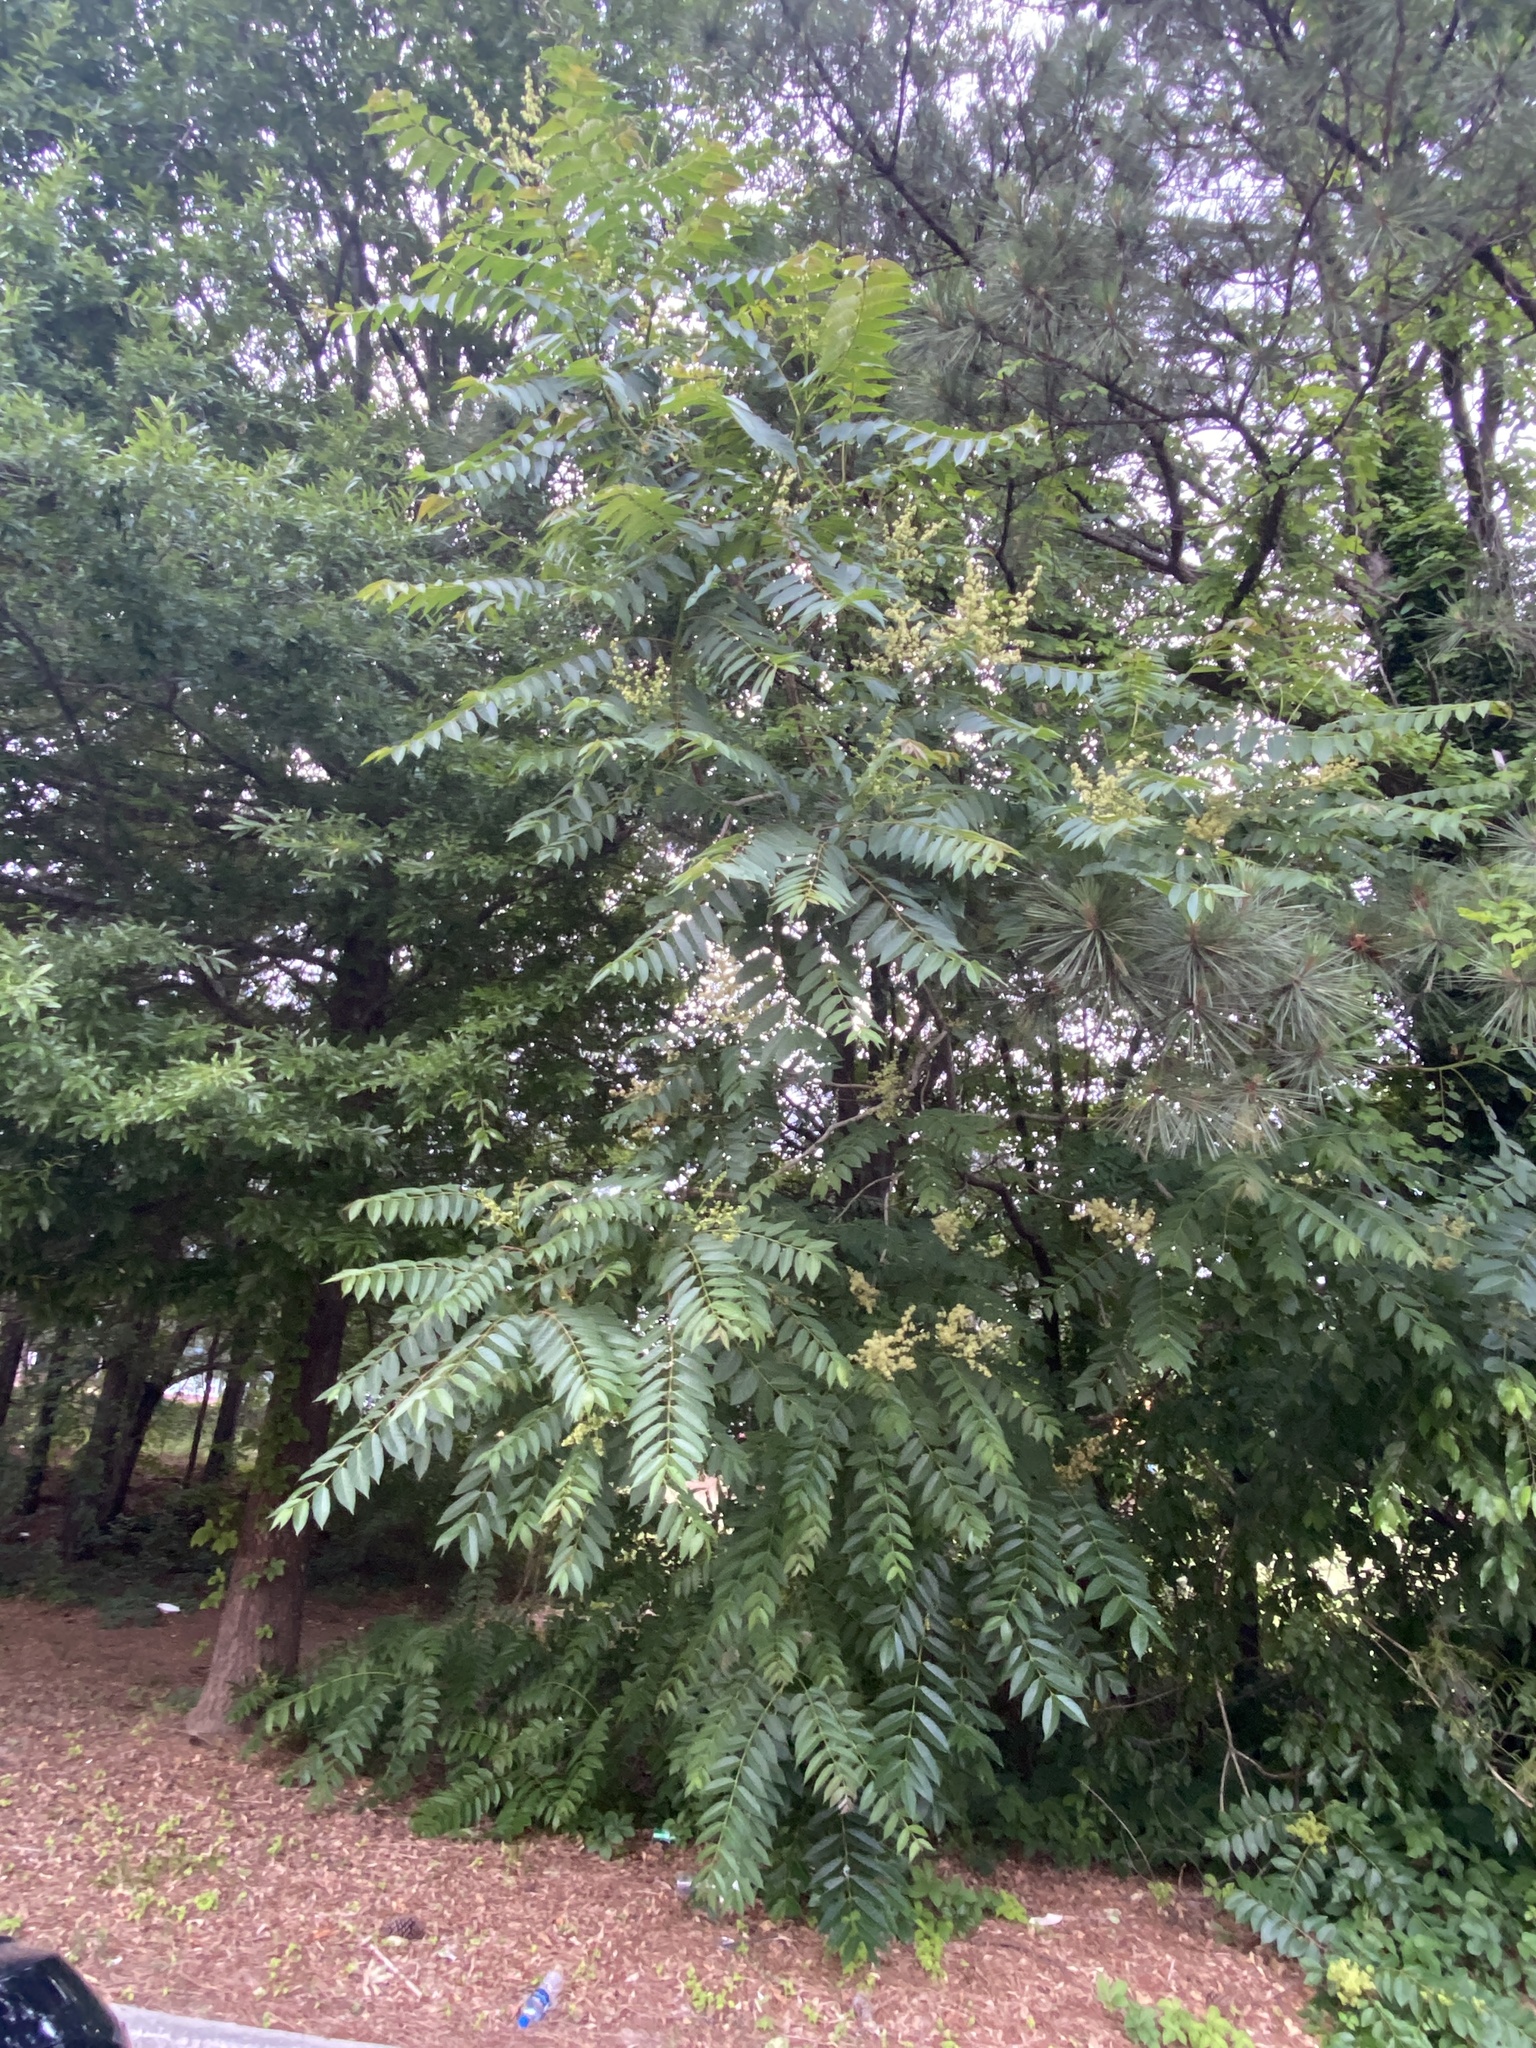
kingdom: Plantae
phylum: Tracheophyta
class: Magnoliopsida
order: Sapindales
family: Simaroubaceae
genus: Ailanthus
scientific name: Ailanthus altissima
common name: Tree-of-heaven
